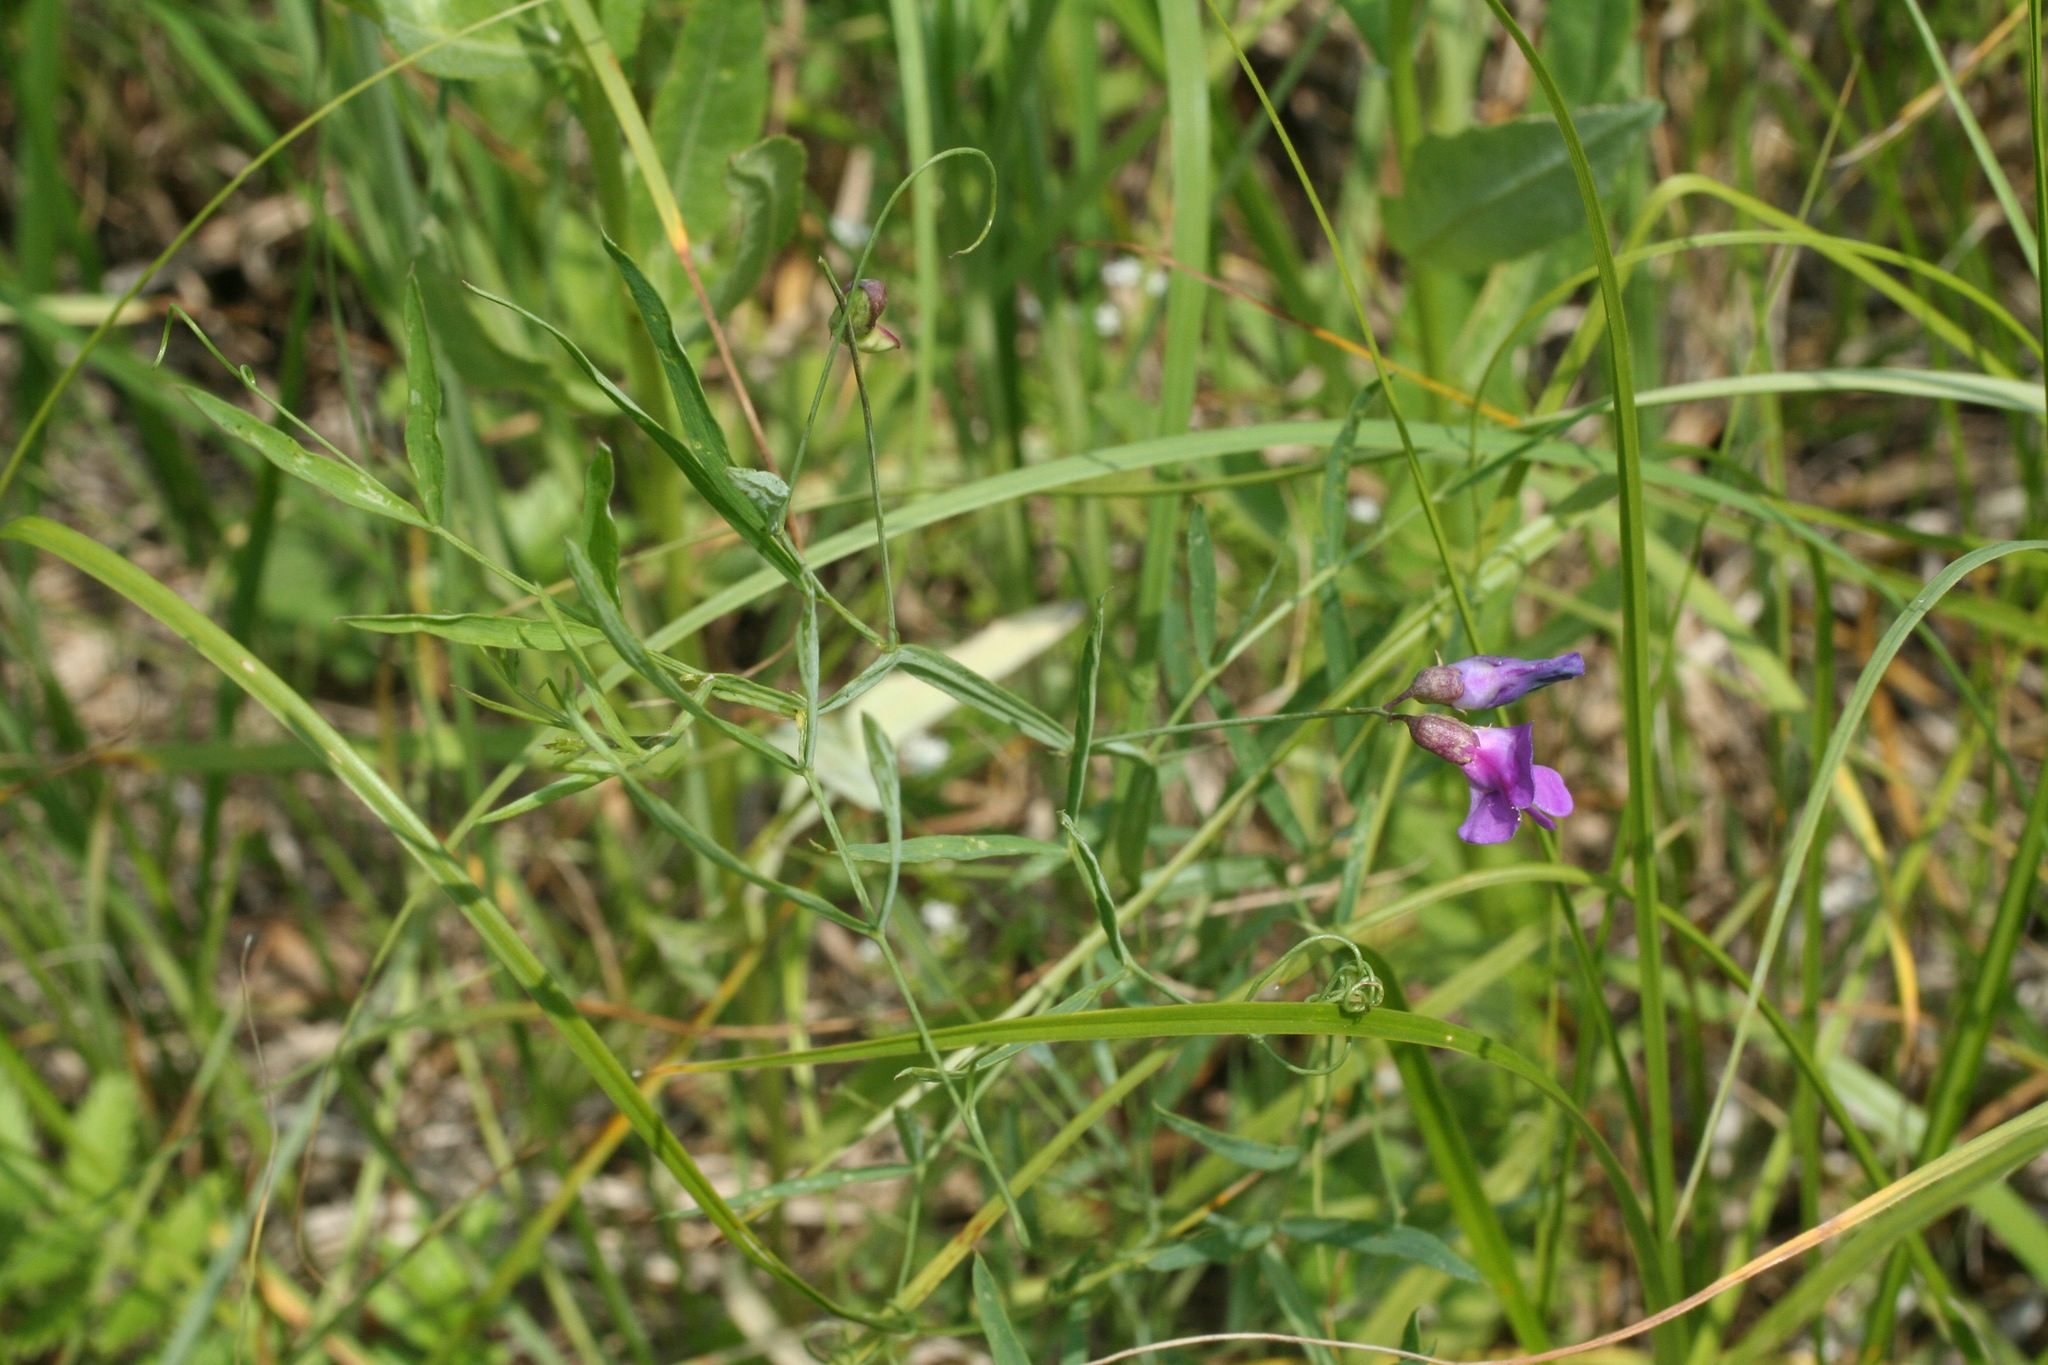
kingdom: Plantae
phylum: Tracheophyta
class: Magnoliopsida
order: Fabales
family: Fabaceae
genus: Lathyrus
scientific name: Lathyrus palustris
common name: Marsh pea
